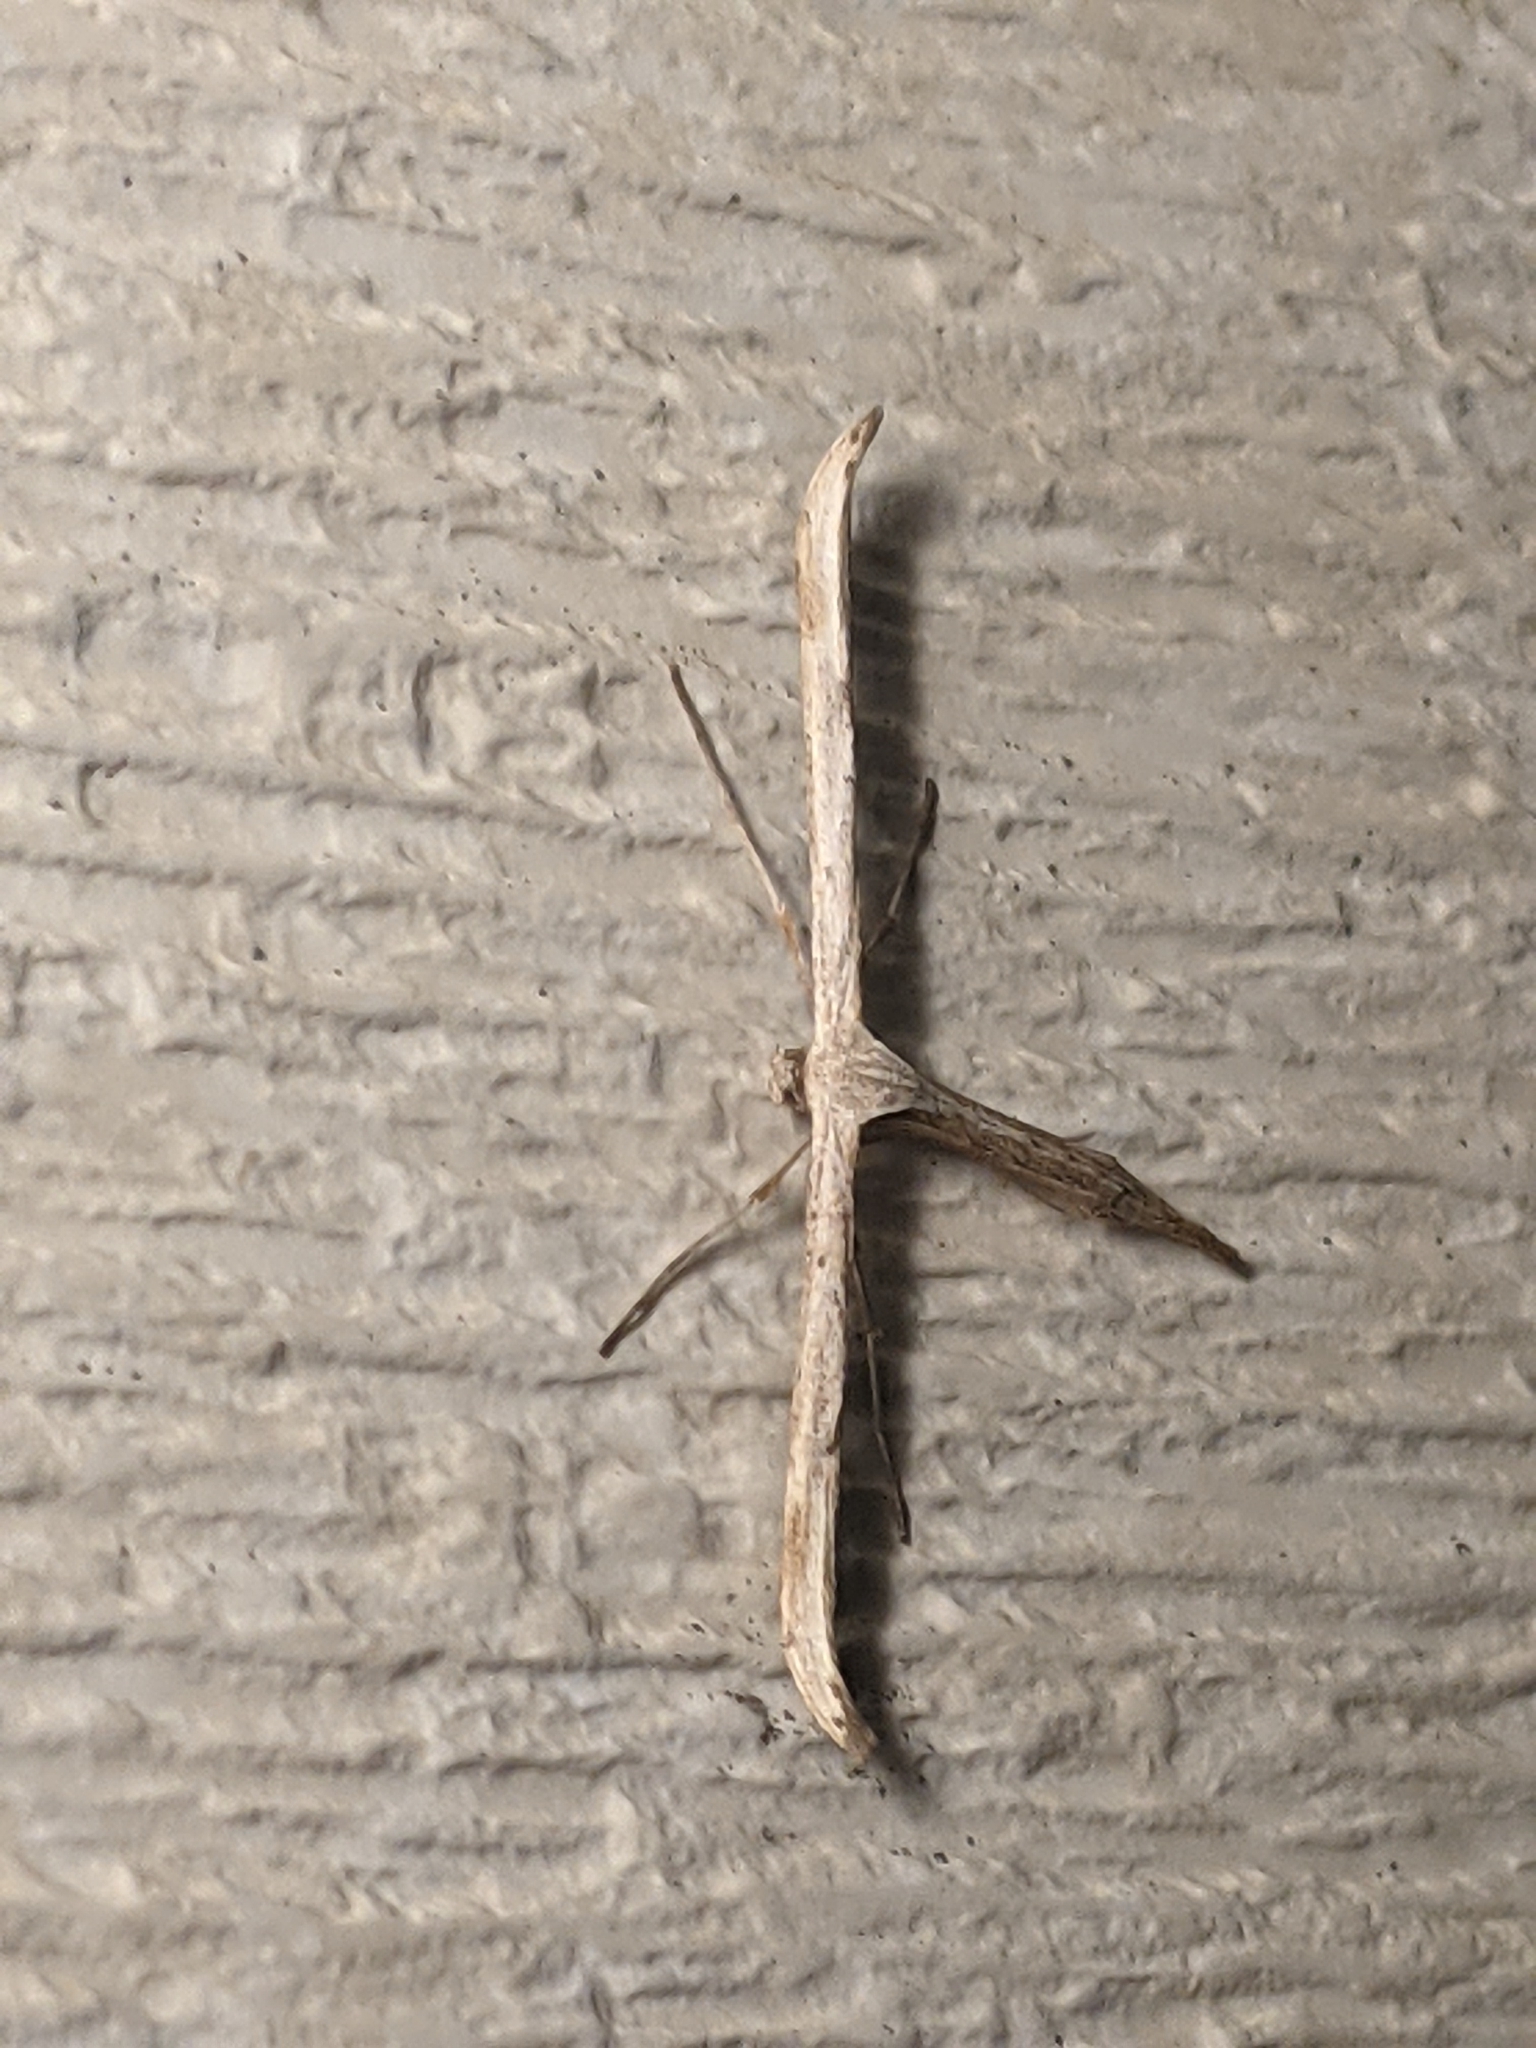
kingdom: Animalia
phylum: Arthropoda
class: Insecta
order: Lepidoptera
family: Pterophoridae
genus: Emmelina
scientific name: Emmelina monodactyla
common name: Common plume
